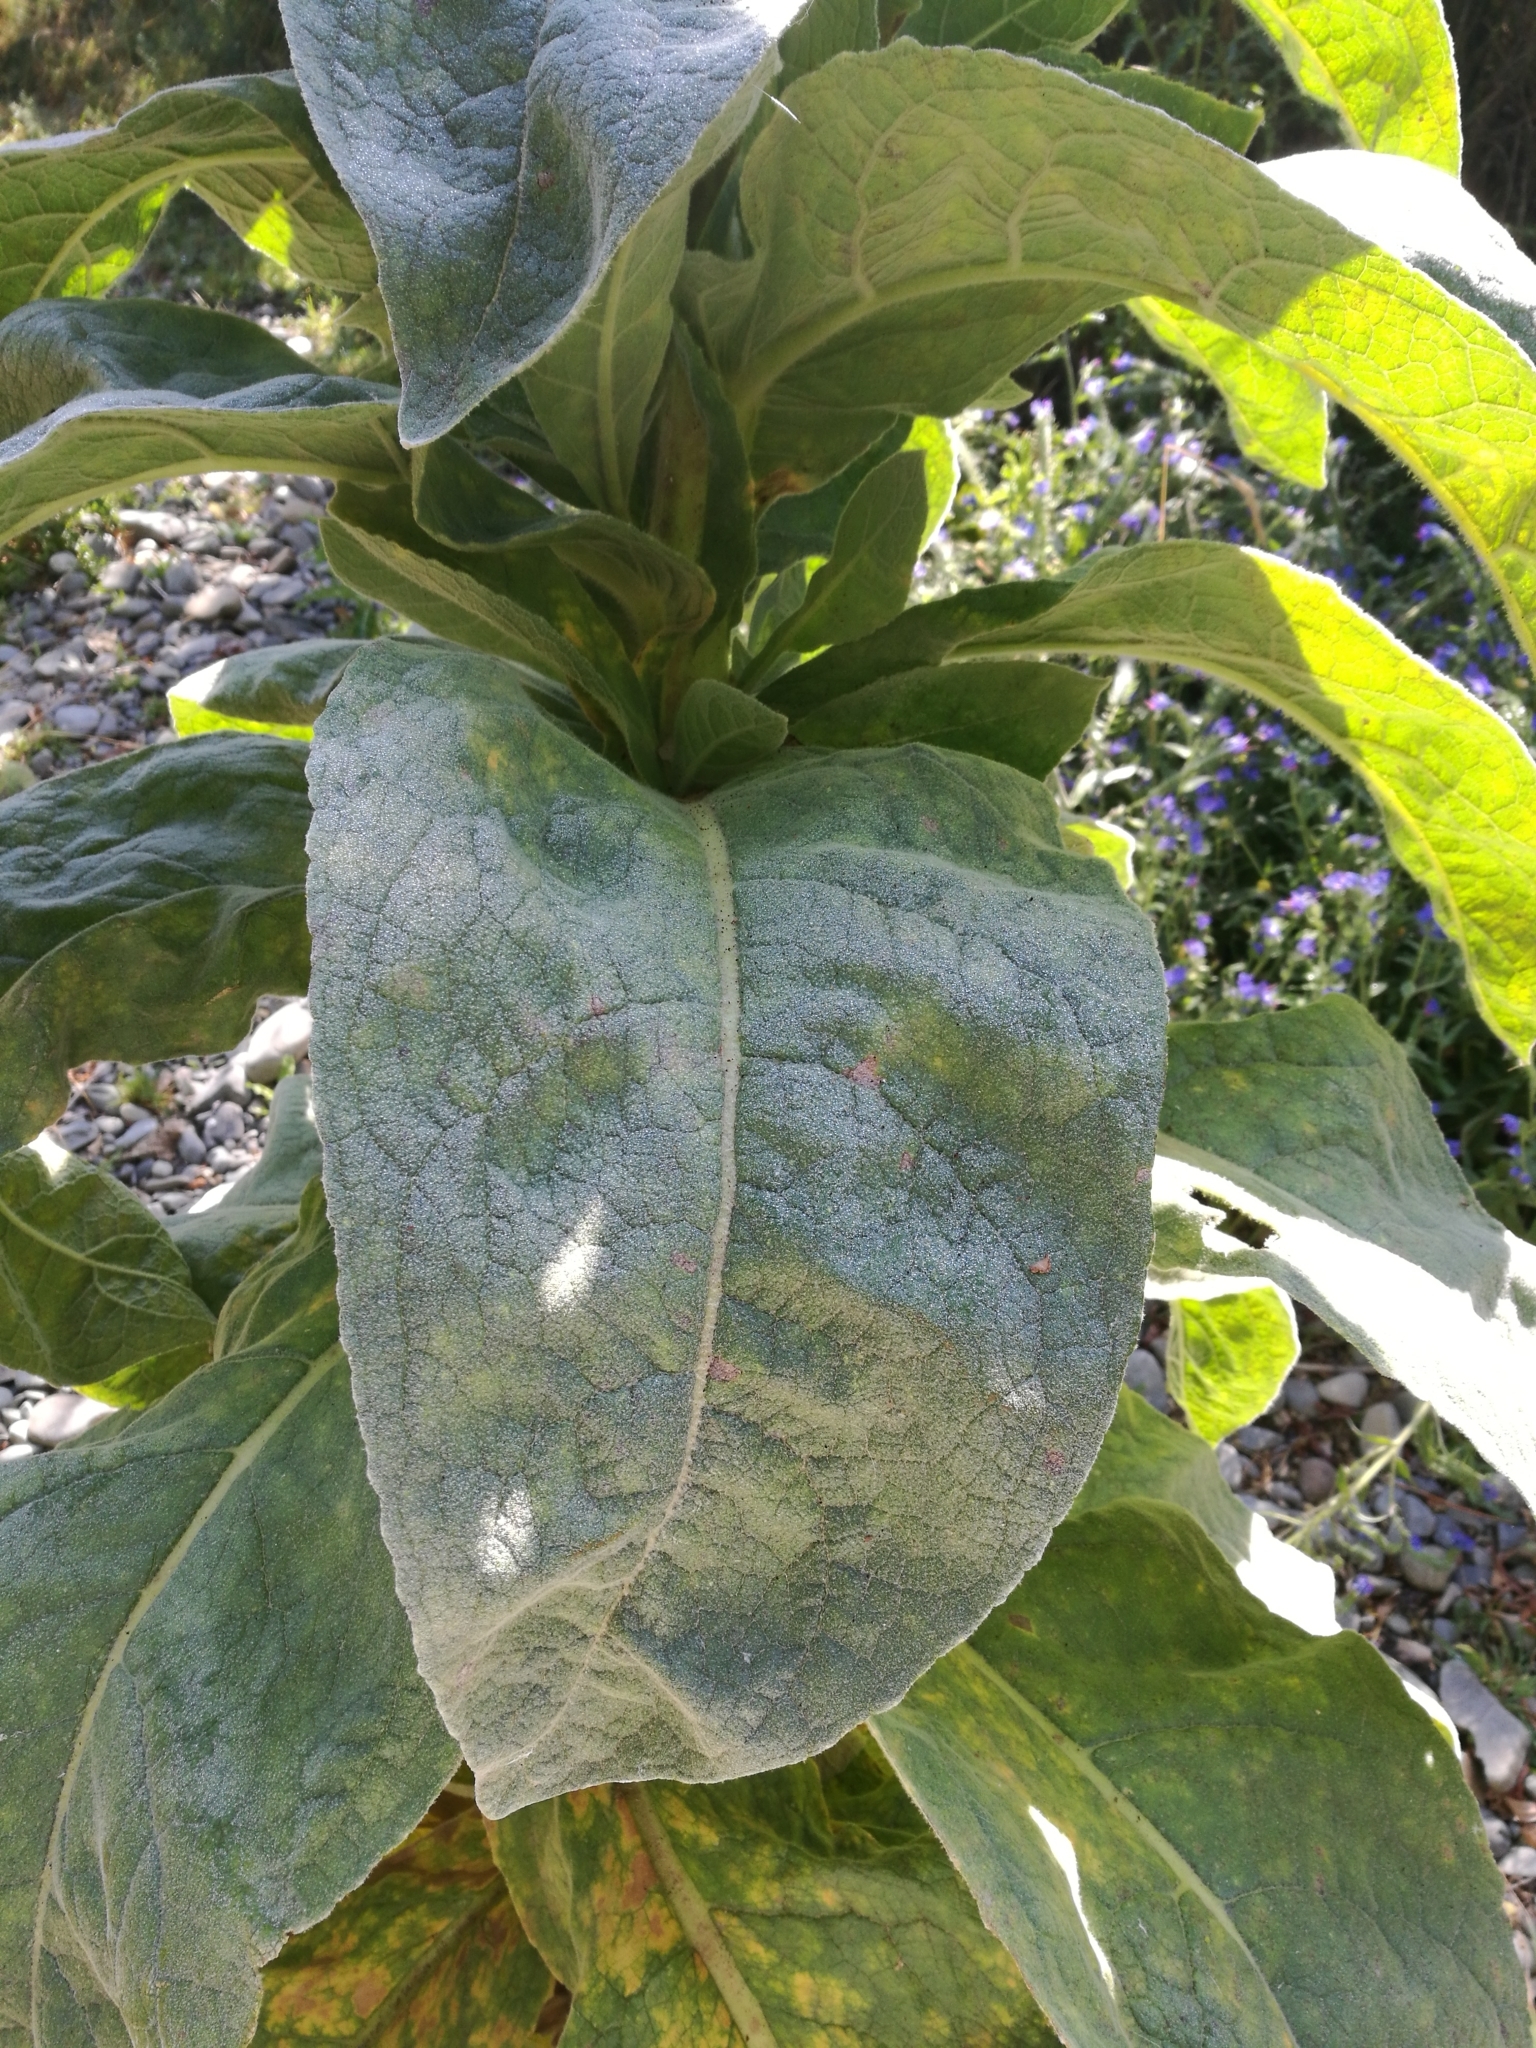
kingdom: Plantae
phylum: Tracheophyta
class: Magnoliopsida
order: Lamiales
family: Scrophulariaceae
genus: Verbascum
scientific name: Verbascum thapsus
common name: Common mullein
